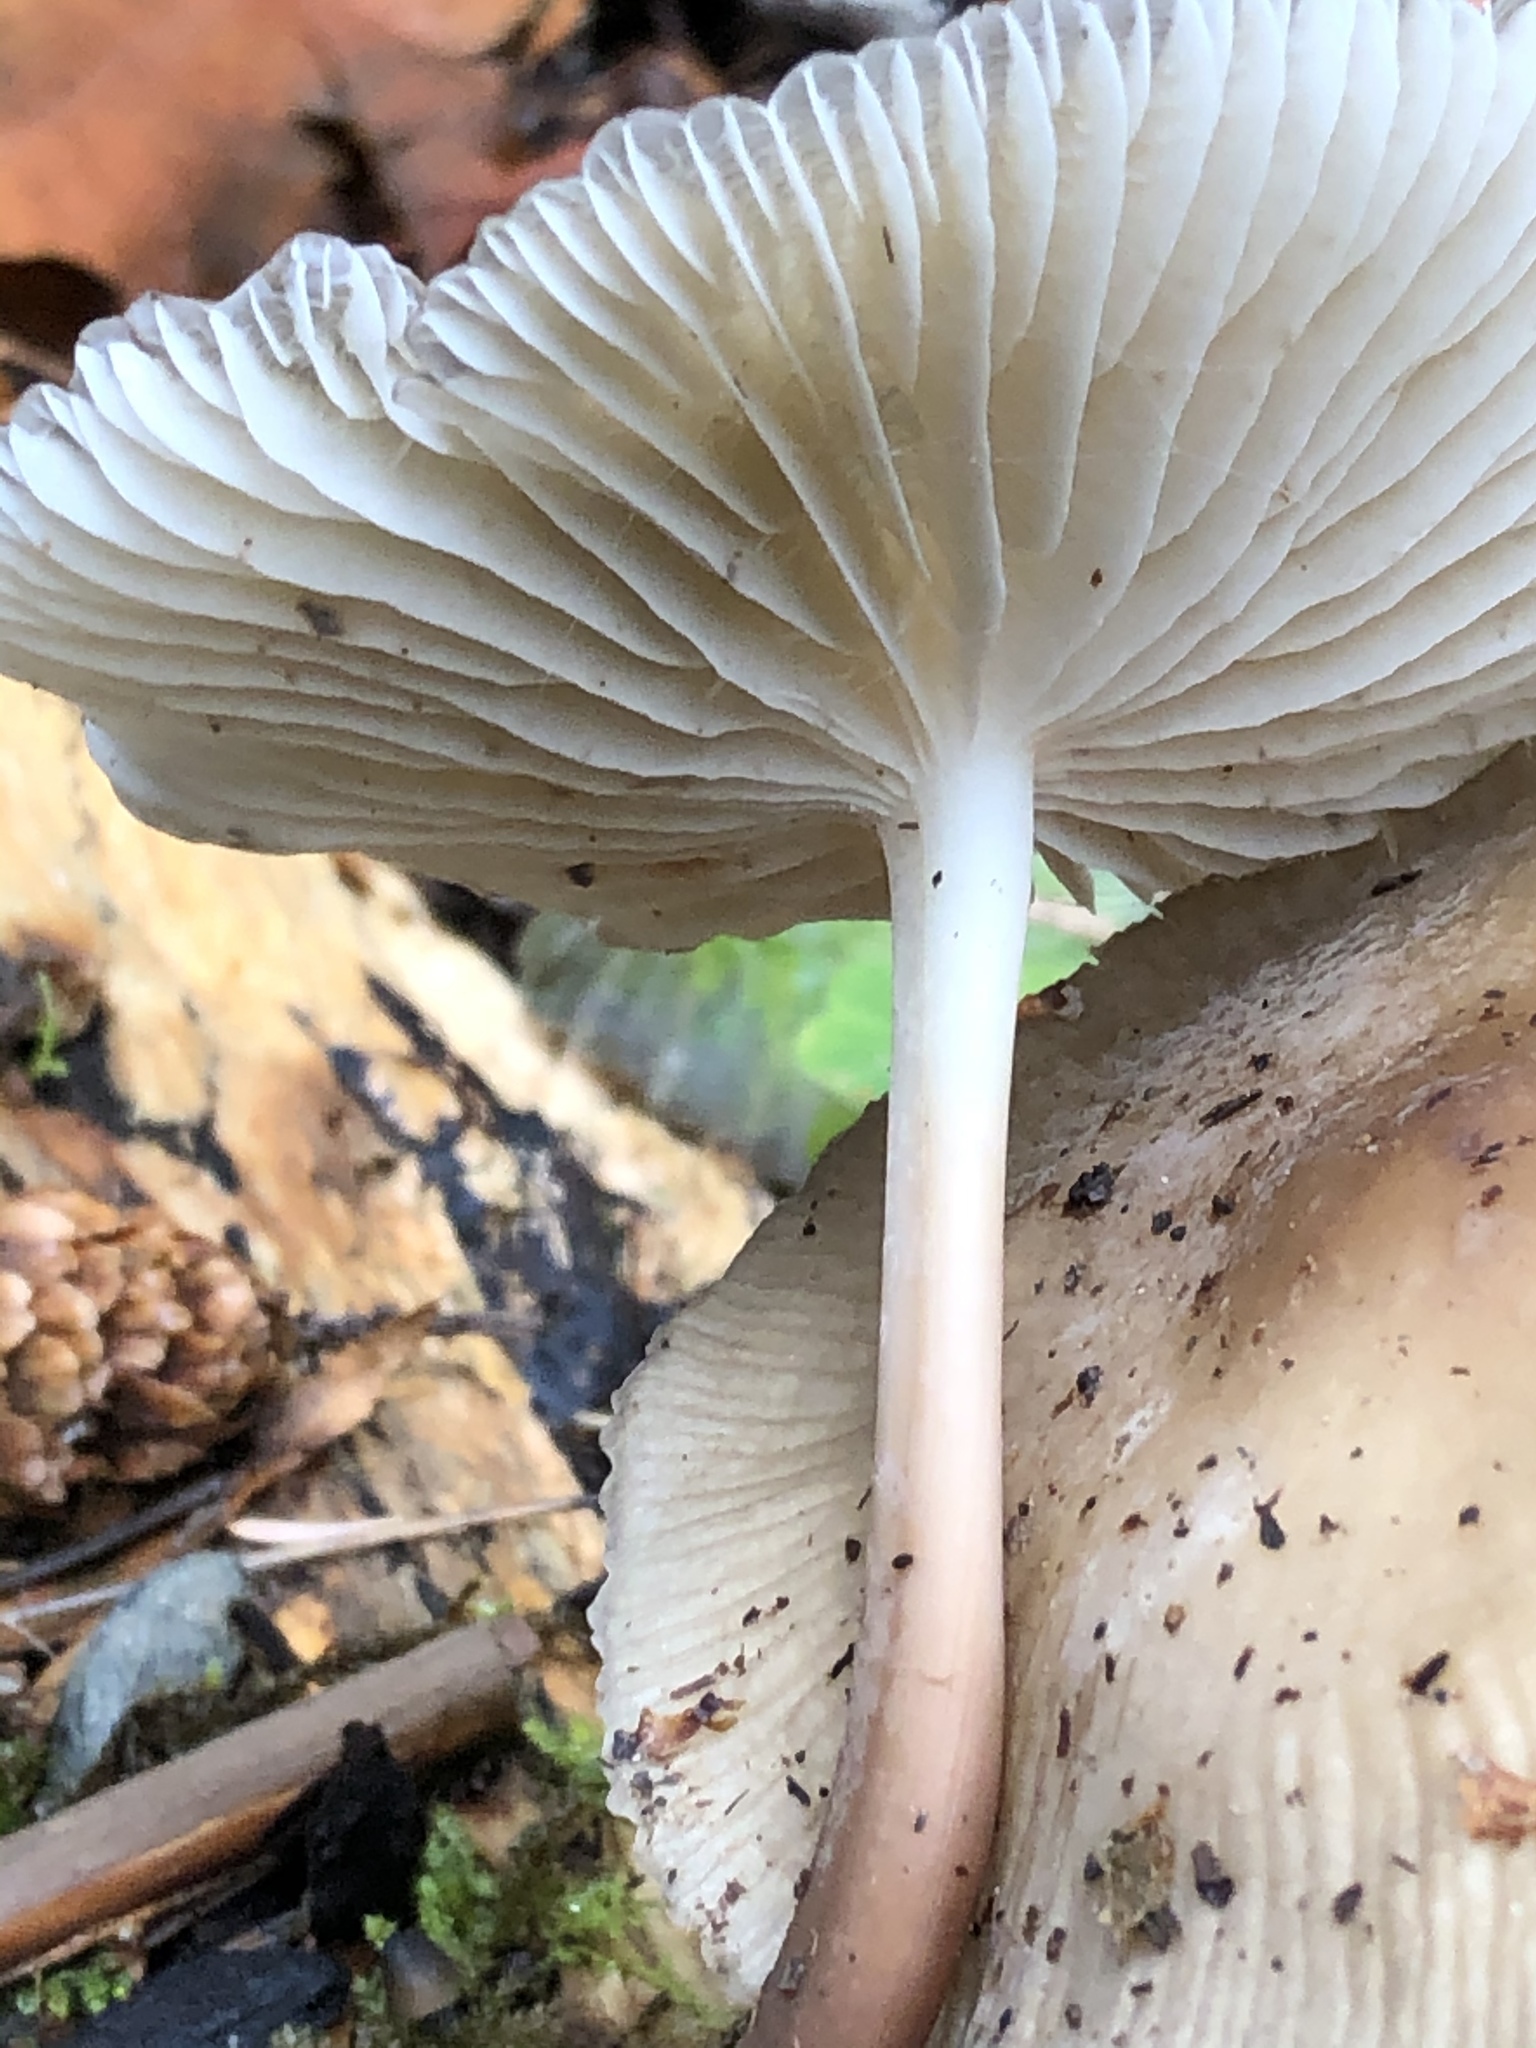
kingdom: Fungi
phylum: Basidiomycota
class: Agaricomycetes
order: Agaricales
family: Mycenaceae
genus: Mycena
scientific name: Mycena galericulata
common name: Bonnet mycena
